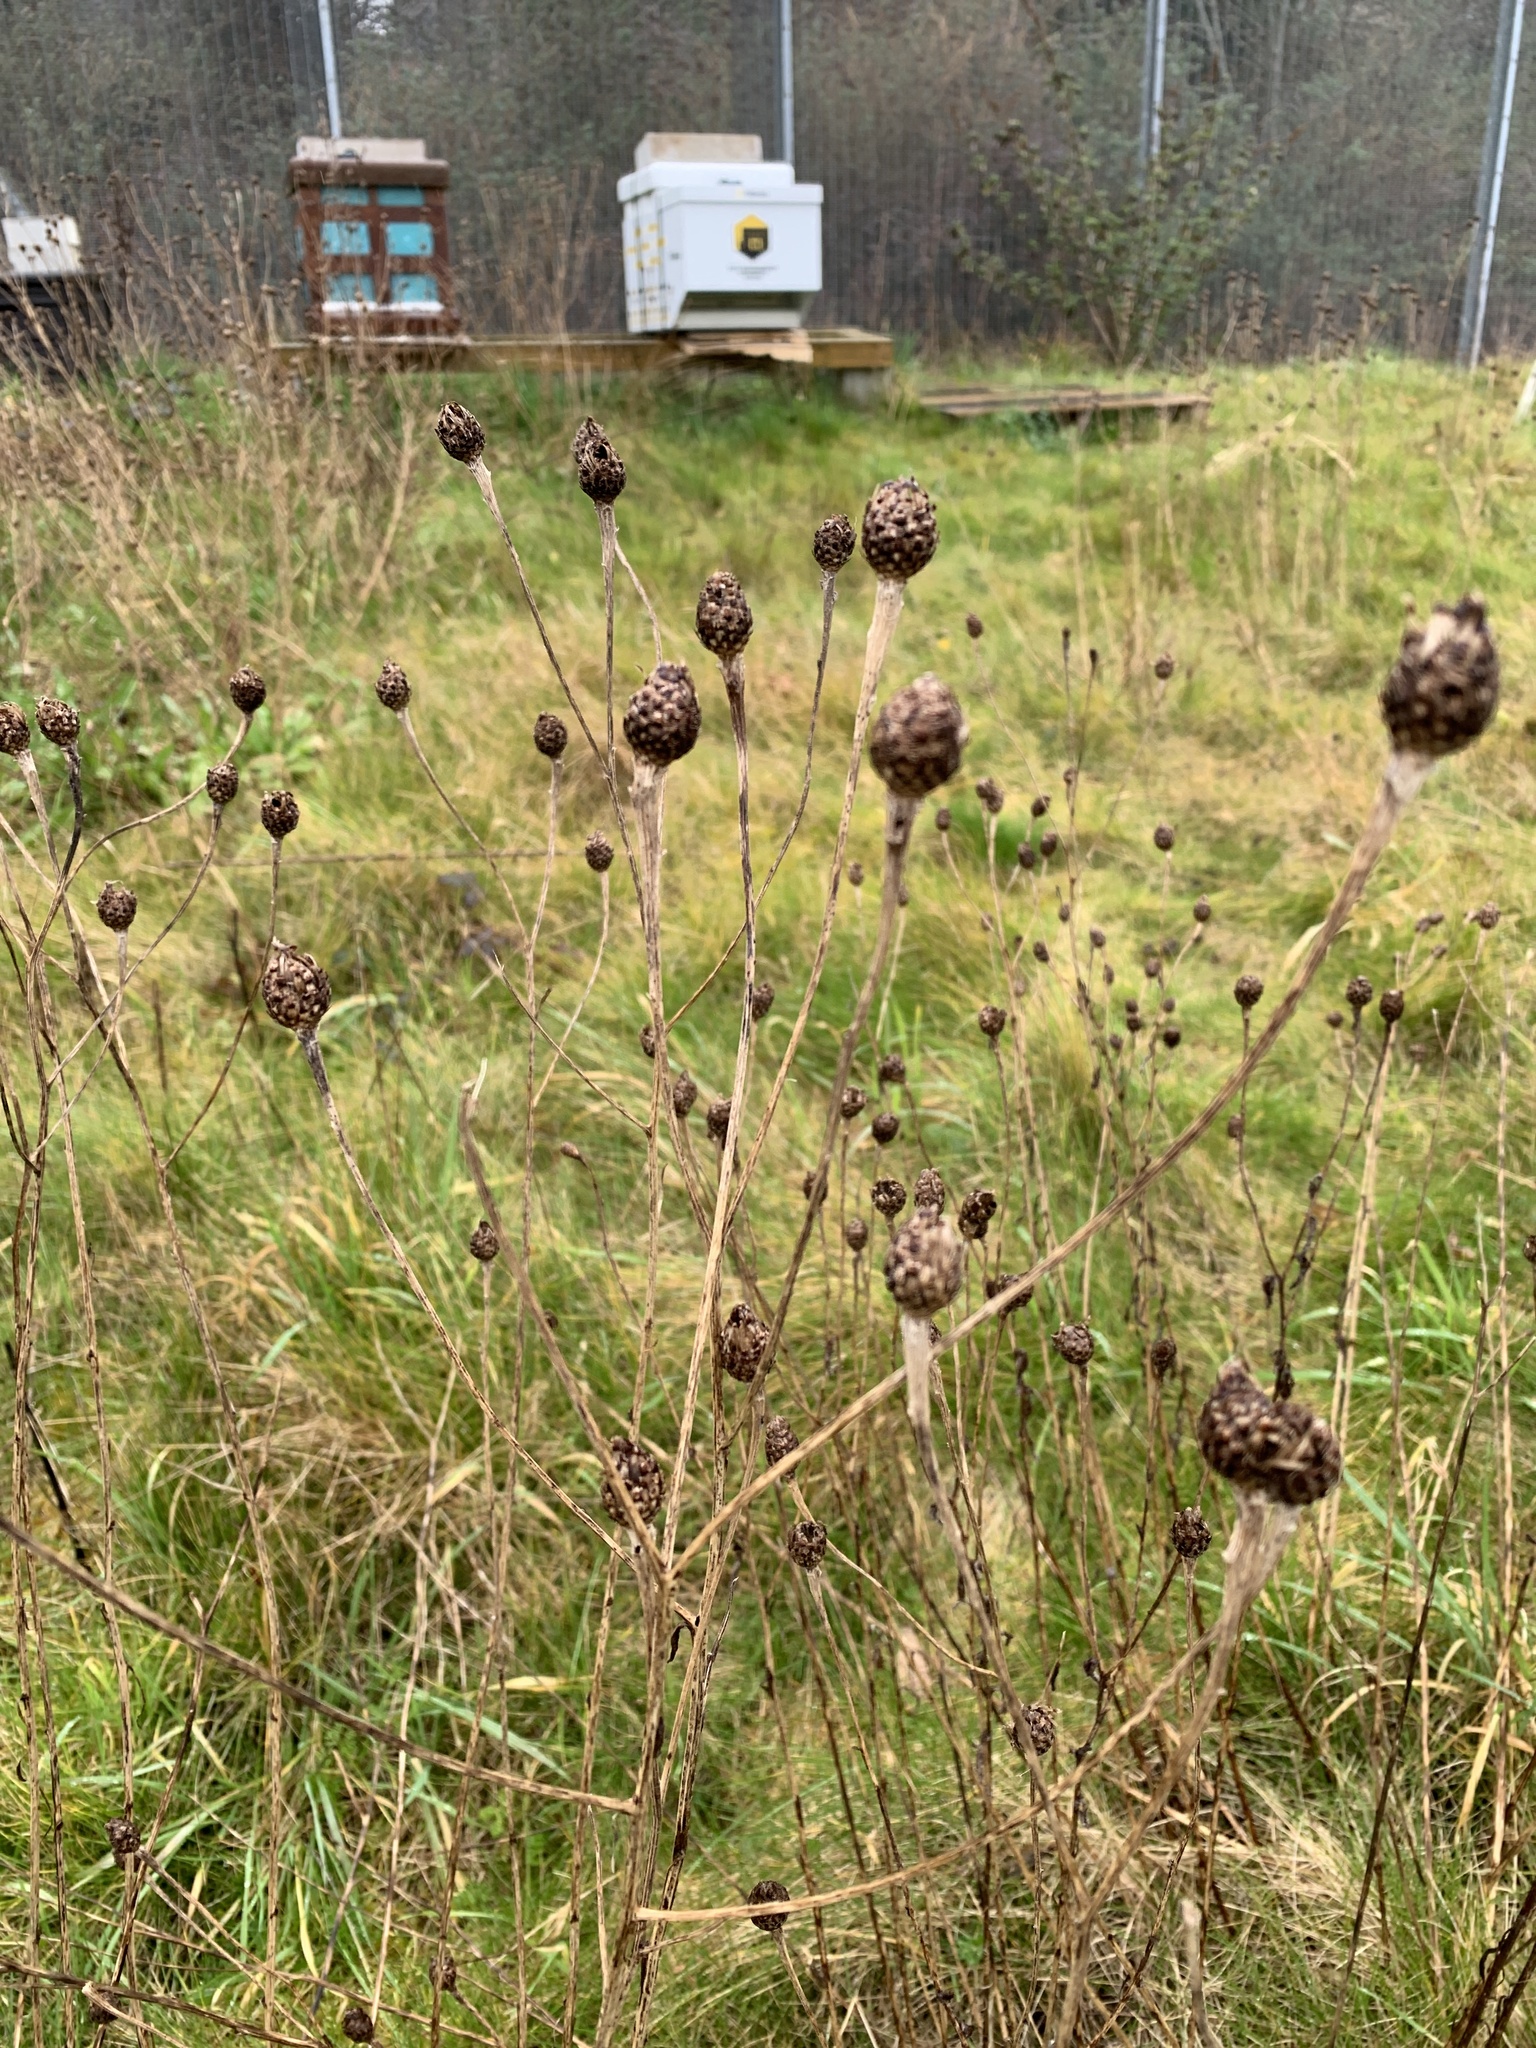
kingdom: Plantae
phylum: Tracheophyta
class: Magnoliopsida
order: Asterales
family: Asteraceae
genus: Centaurea
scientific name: Centaurea nigra
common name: Lesser knapweed
